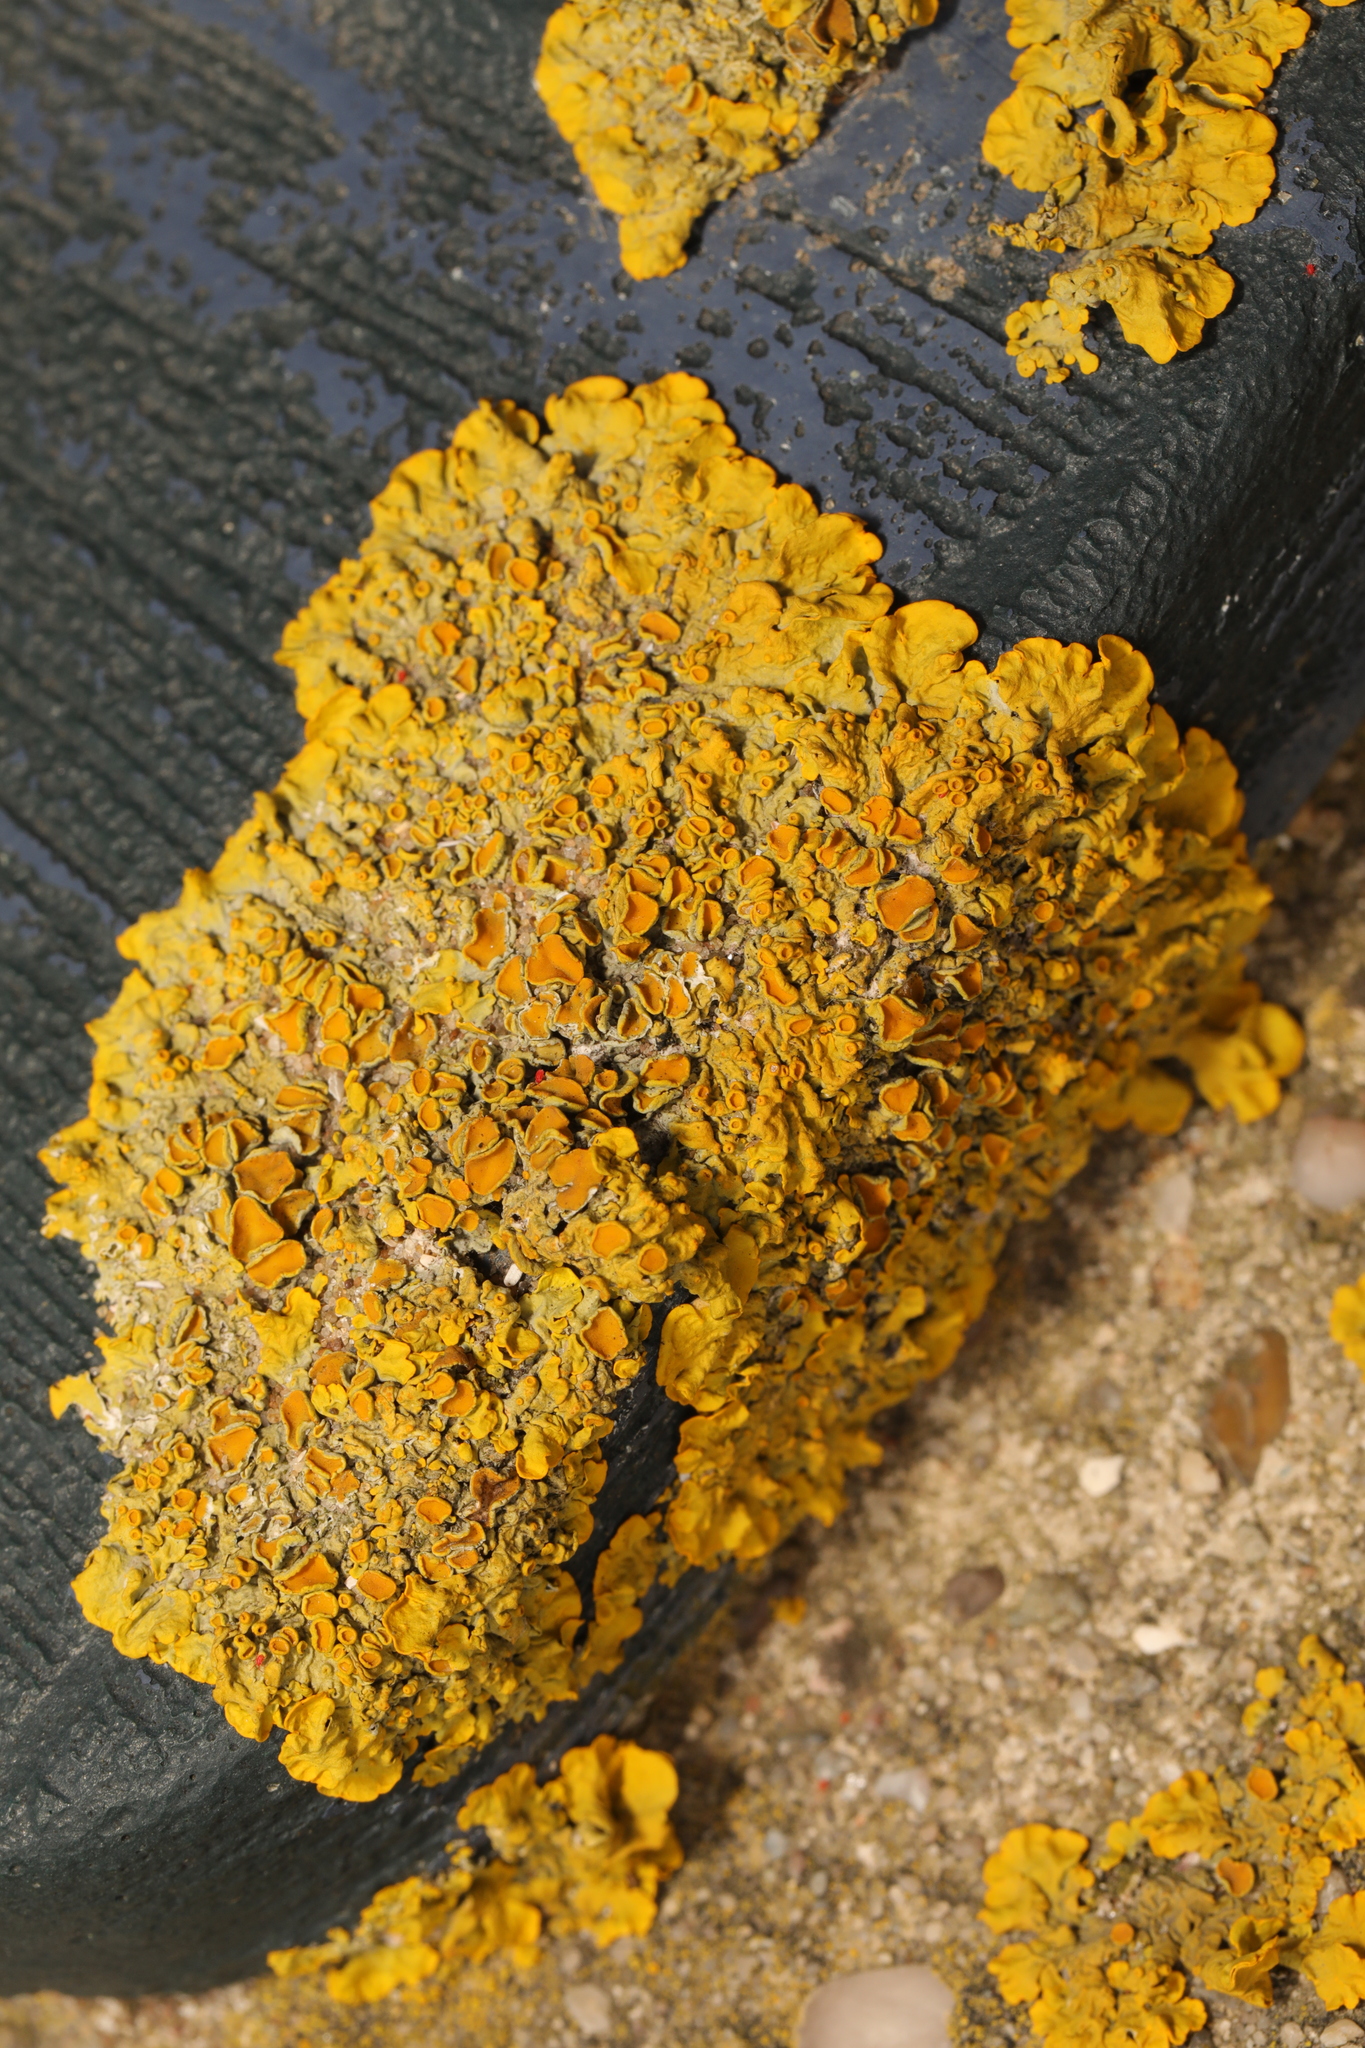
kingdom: Fungi
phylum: Ascomycota
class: Lecanoromycetes
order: Teloschistales
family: Teloschistaceae
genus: Xanthoria
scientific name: Xanthoria parietina
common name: Common orange lichen
